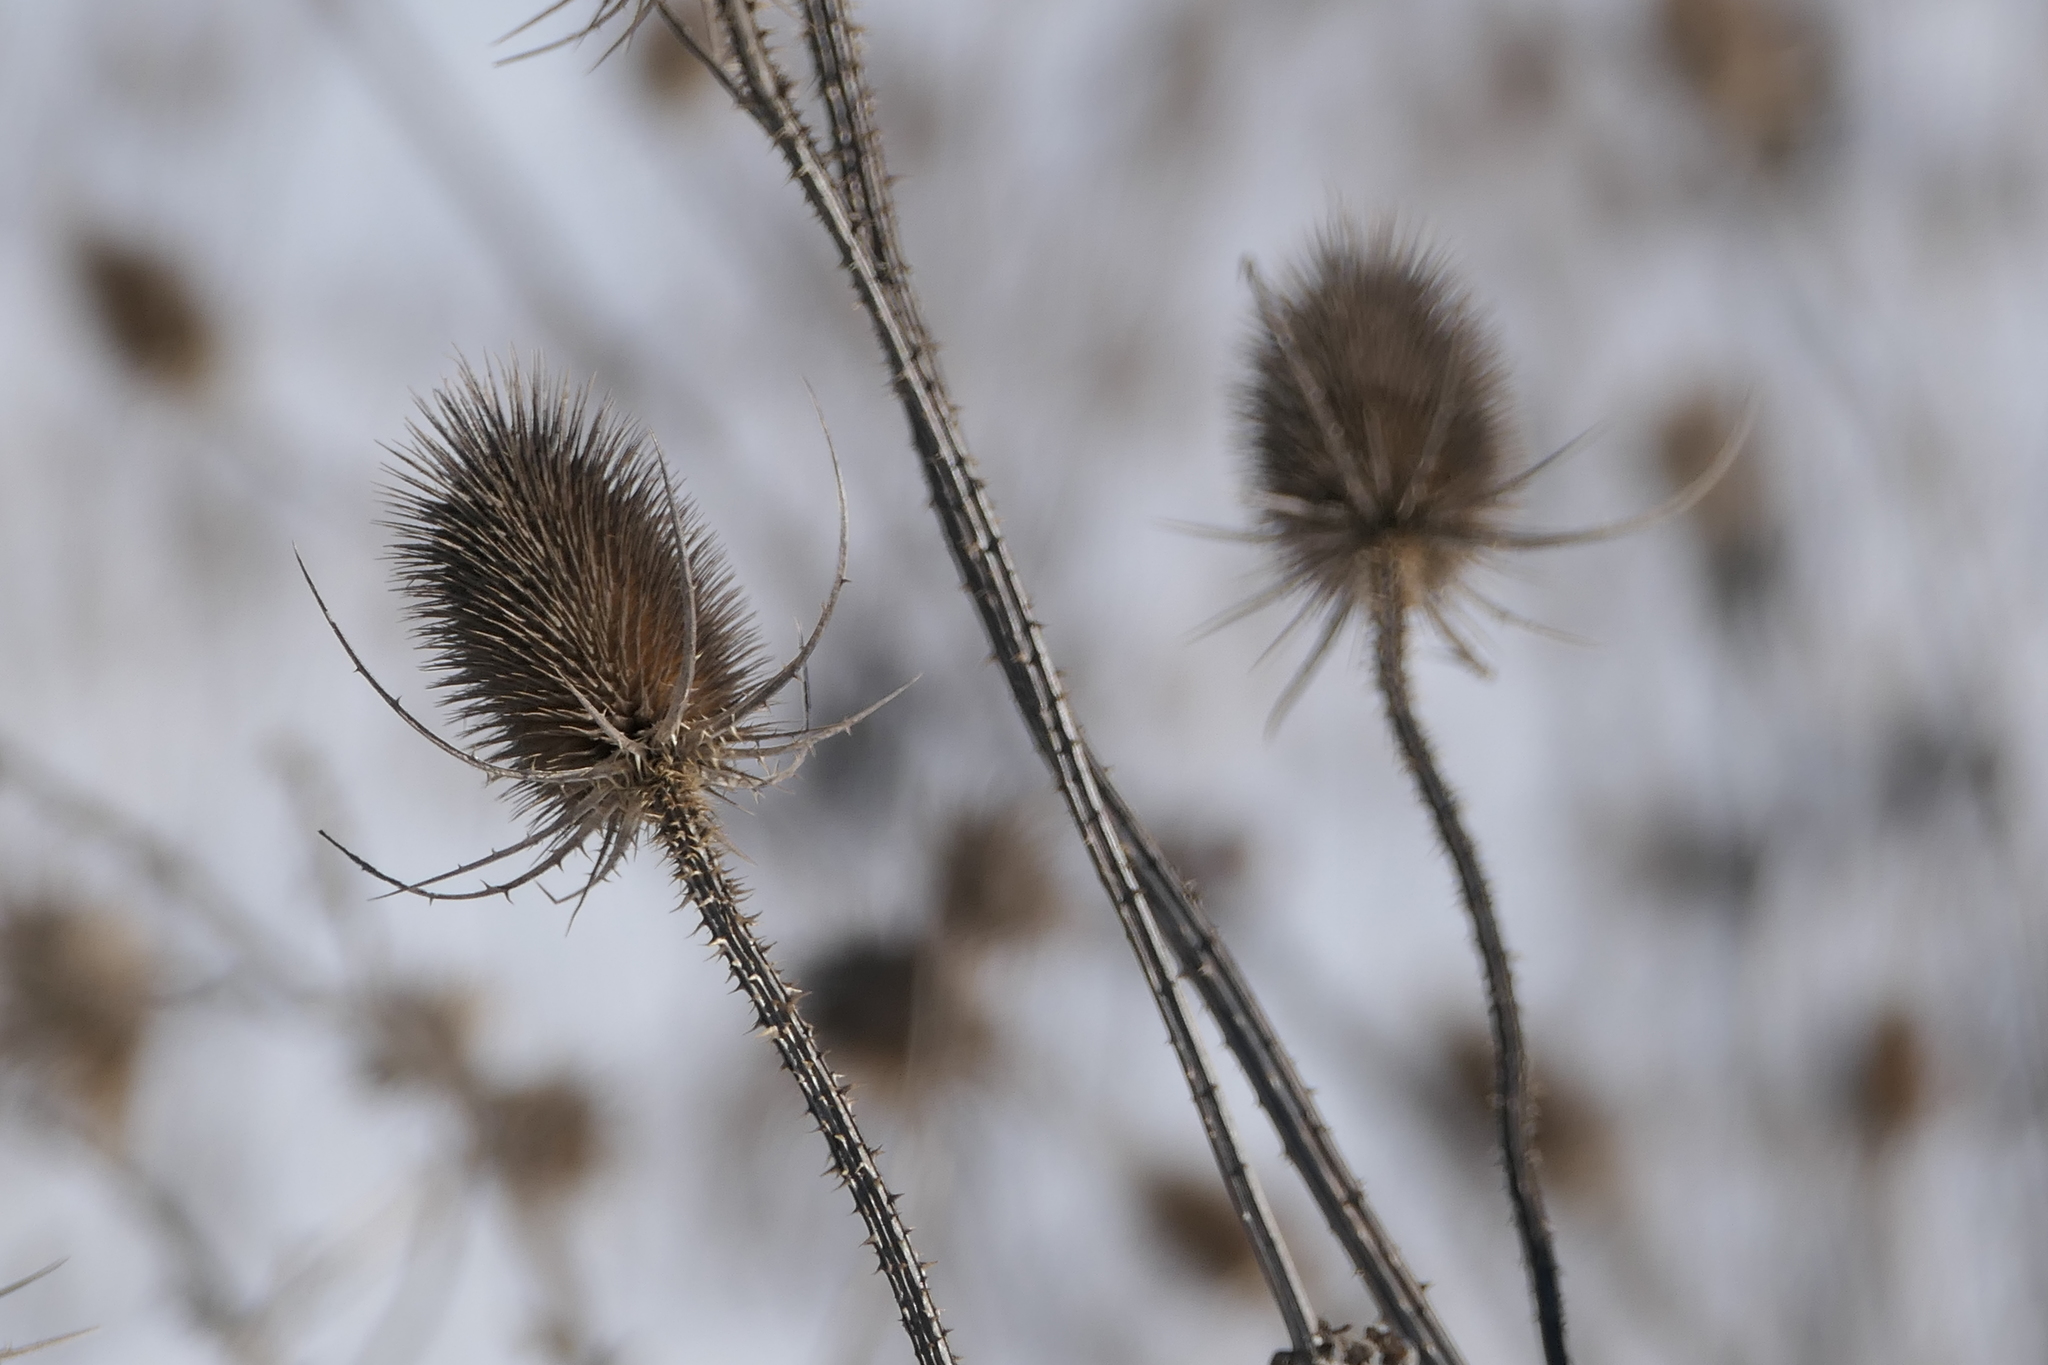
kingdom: Plantae
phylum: Tracheophyta
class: Magnoliopsida
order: Dipsacales
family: Caprifoliaceae
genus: Dipsacus
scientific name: Dipsacus fullonum
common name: Teasel
